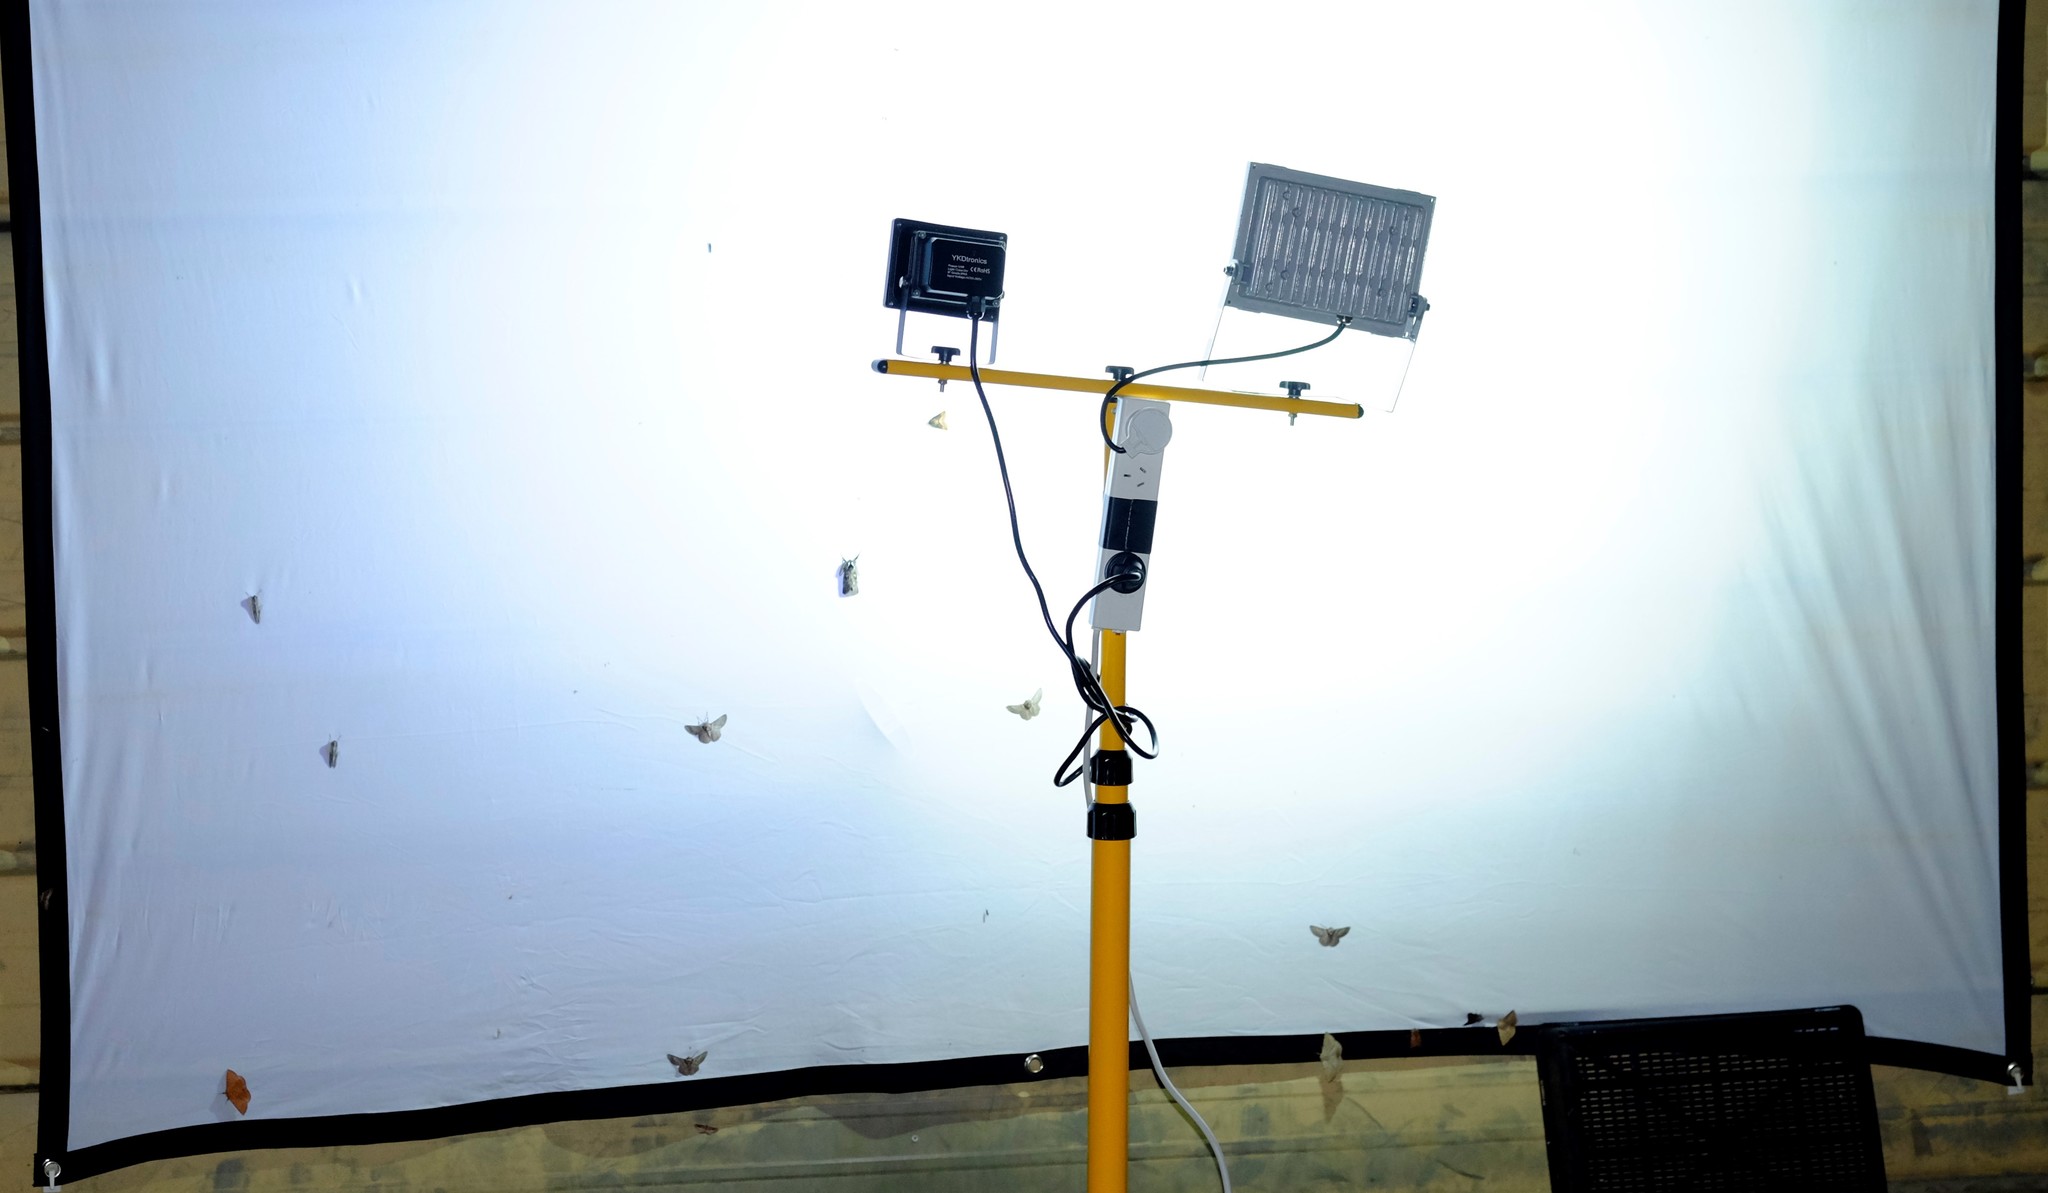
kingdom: Animalia
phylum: Arthropoda
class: Insecta
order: Lepidoptera
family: Anthelidae
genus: Anthela
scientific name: Anthela acuta
